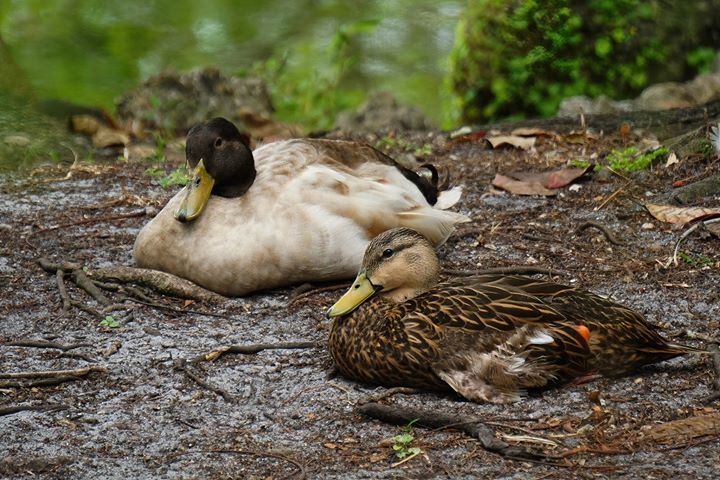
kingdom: Animalia
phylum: Chordata
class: Aves
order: Anseriformes
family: Anatidae
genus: Anas
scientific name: Anas platyrhynchos
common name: Mallard
